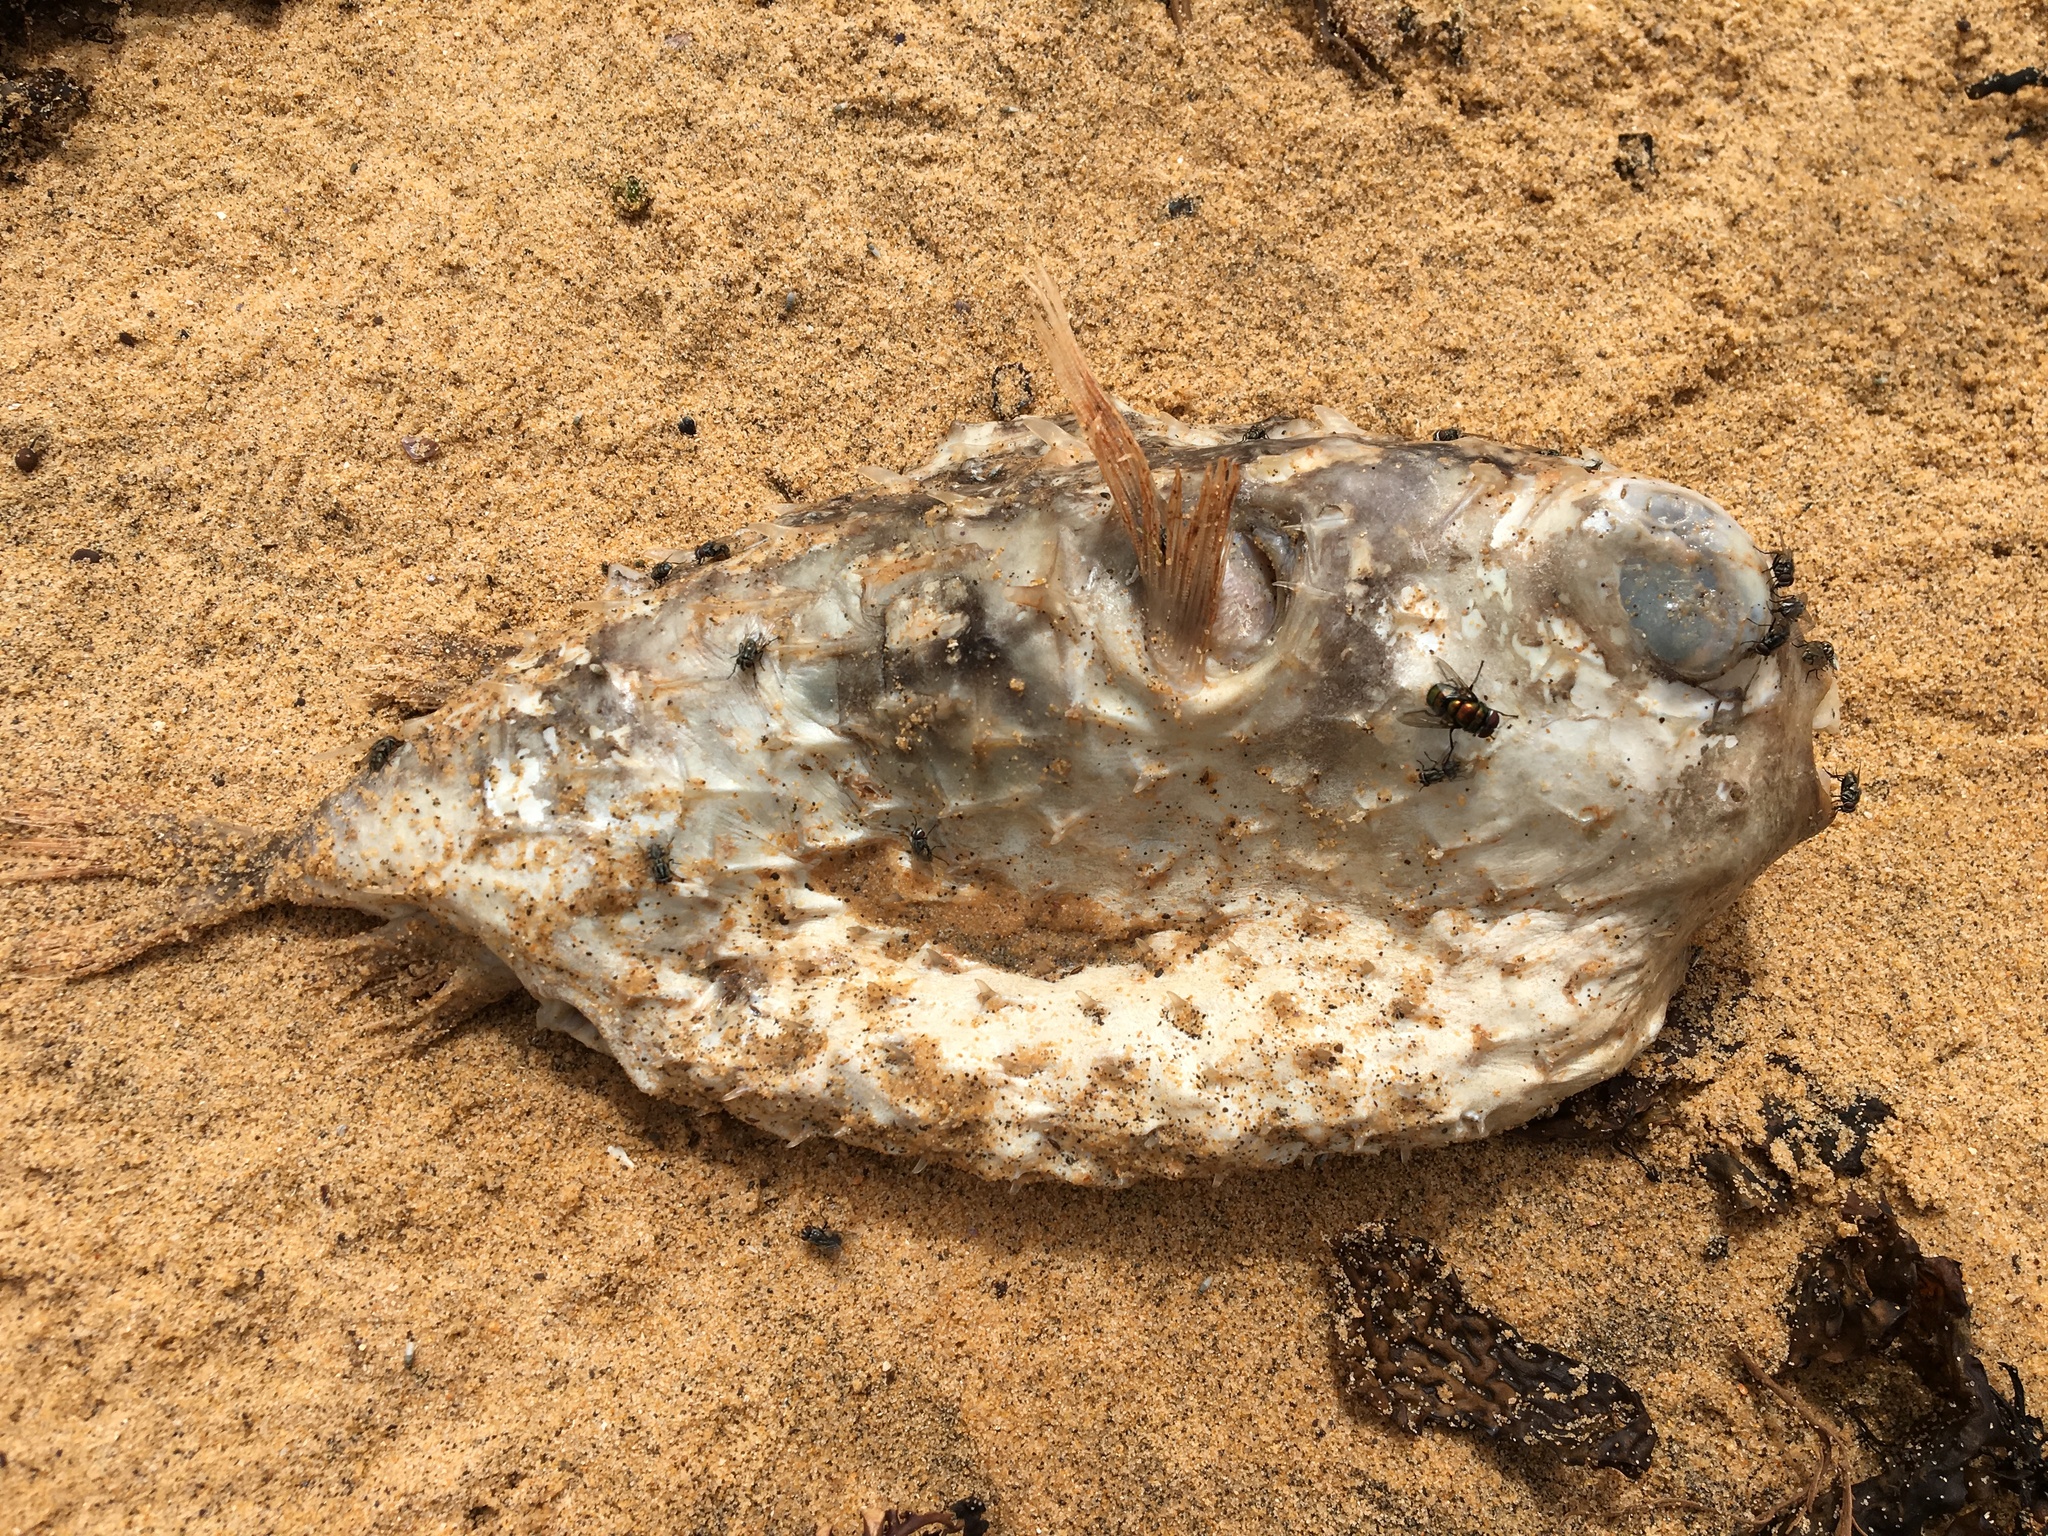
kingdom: Animalia
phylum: Chordata
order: Tetraodontiformes
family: Diodontidae
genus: Allomycterus
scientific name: Allomycterus pilatus
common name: No common name
